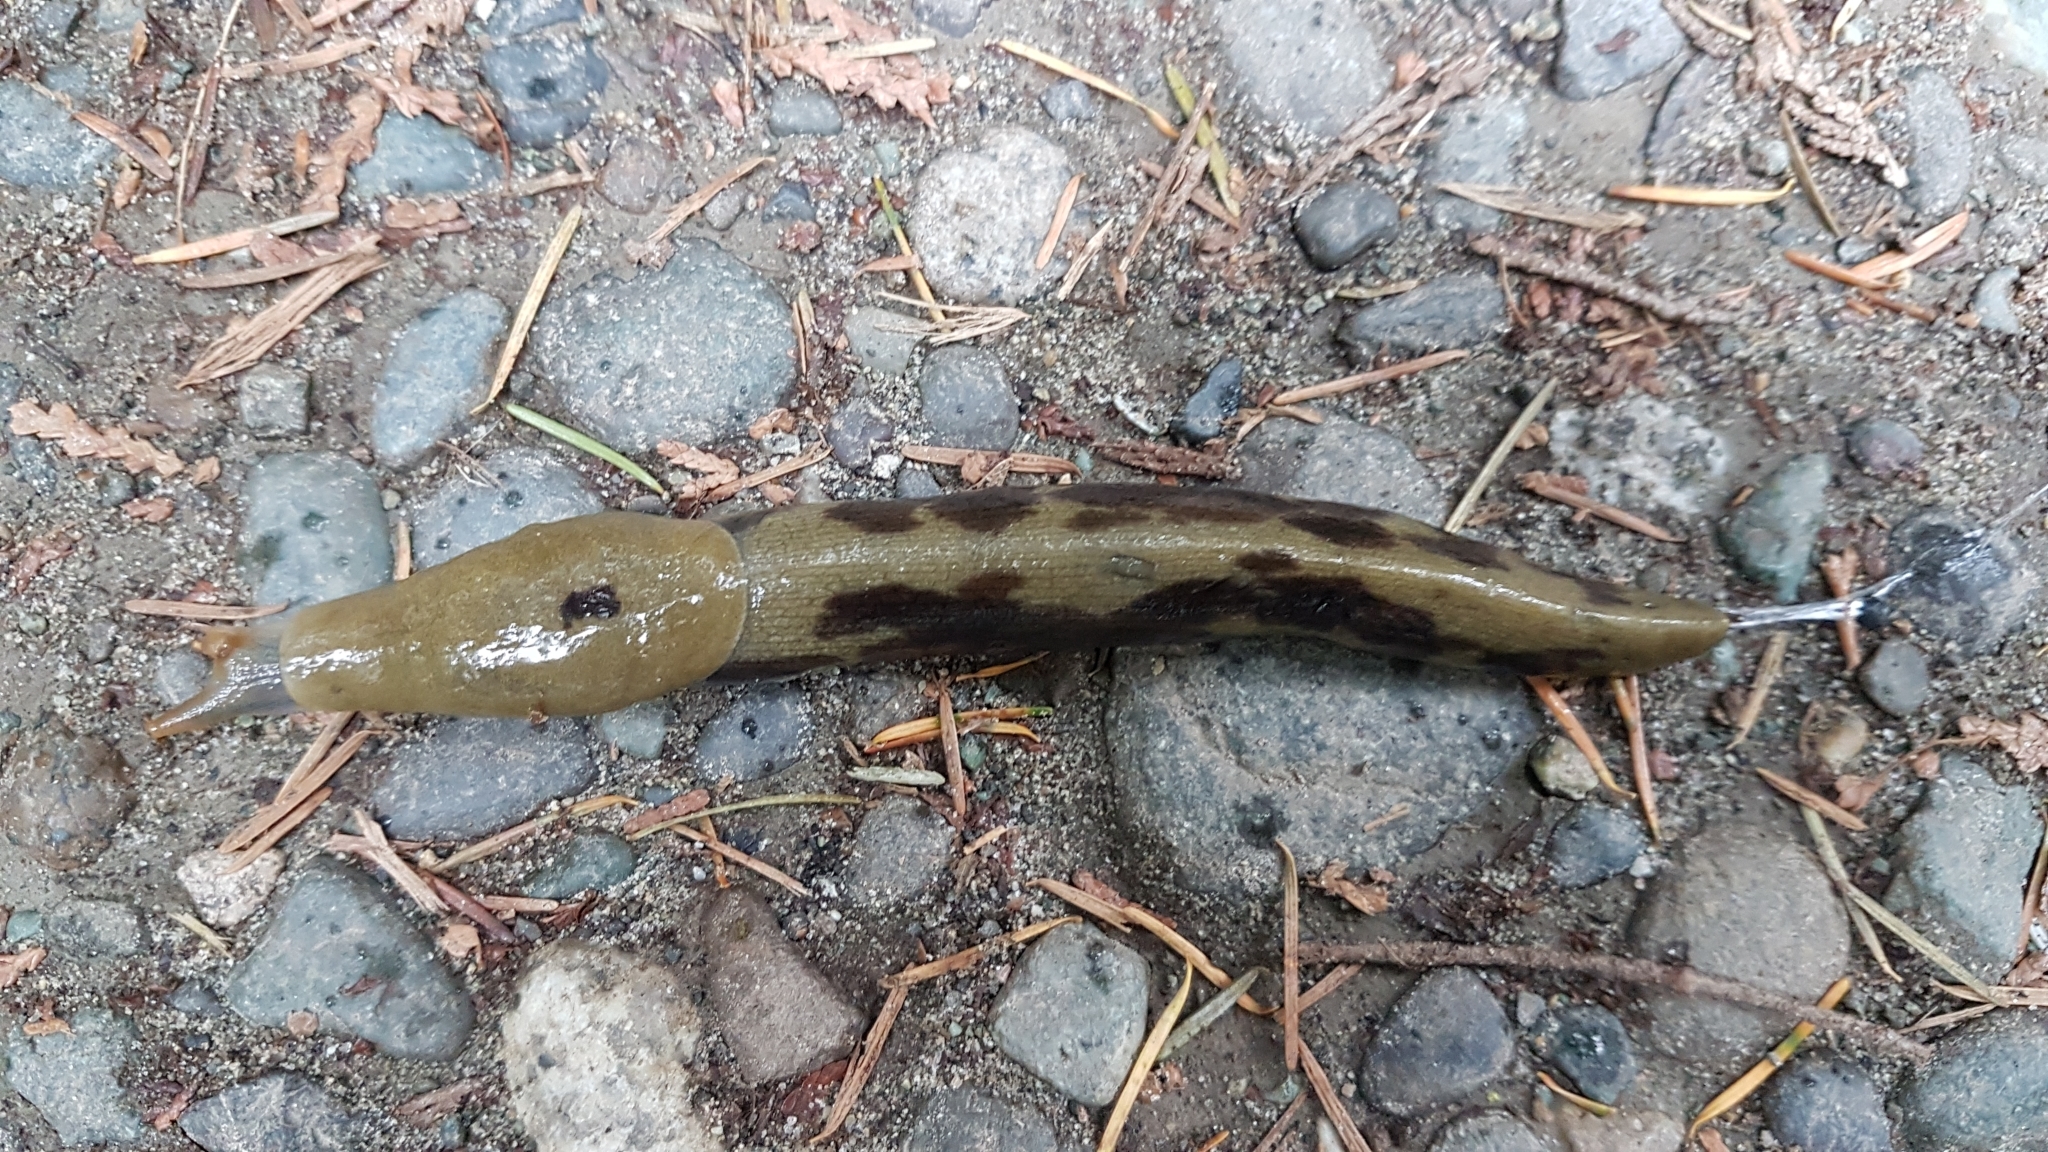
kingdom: Animalia
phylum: Mollusca
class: Gastropoda
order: Stylommatophora
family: Ariolimacidae
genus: Ariolimax
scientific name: Ariolimax columbianus
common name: Pacific banana slug
